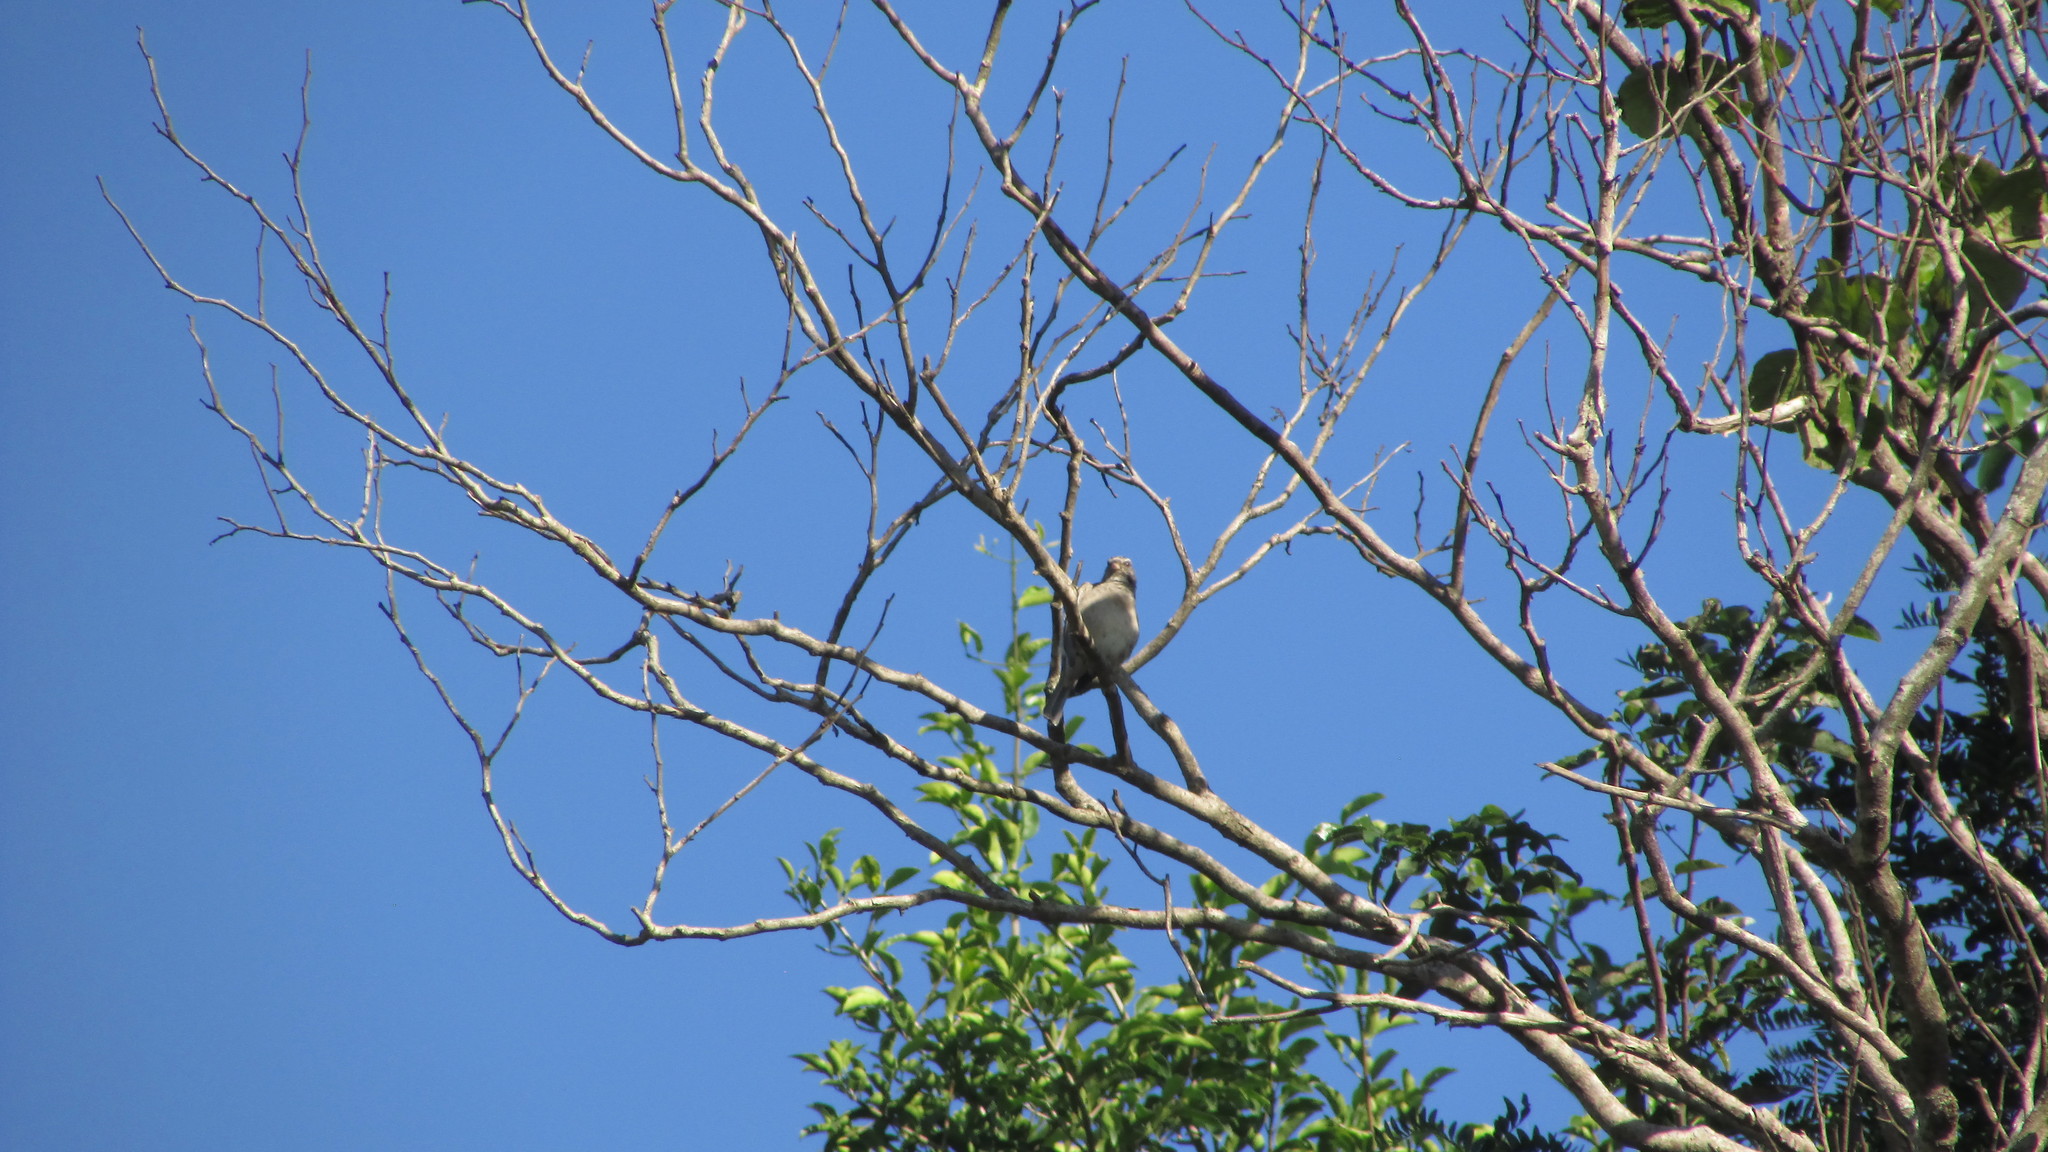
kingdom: Animalia
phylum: Chordata
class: Aves
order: Passeriformes
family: Fringillidae
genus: Crithagra
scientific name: Crithagra gularis
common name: Streaky-headed seedeater
